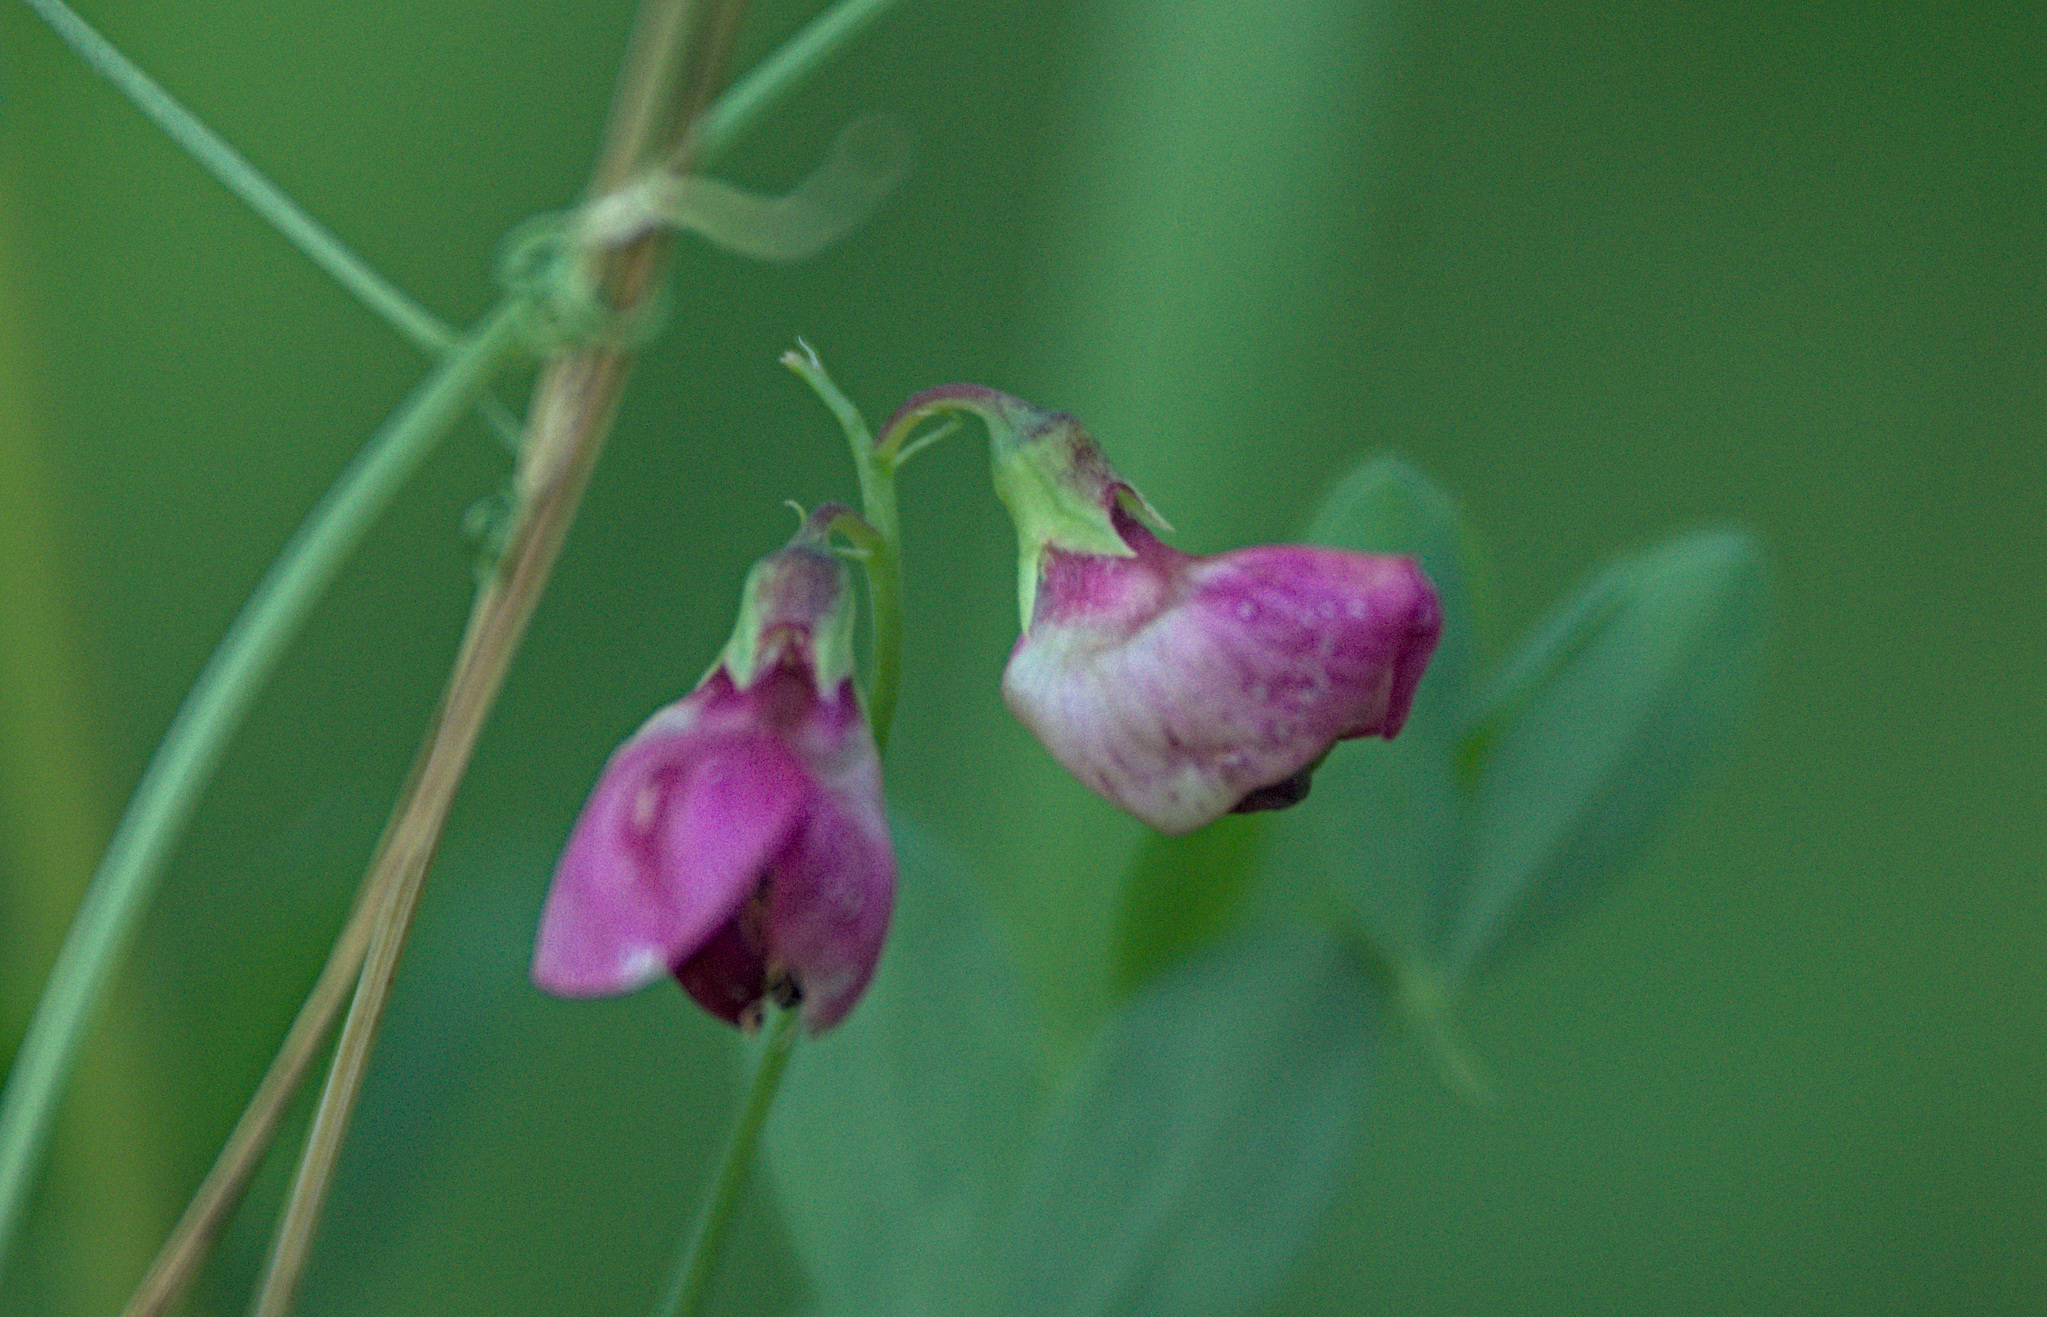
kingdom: Plantae
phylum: Tracheophyta
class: Magnoliopsida
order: Fabales
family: Fabaceae
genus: Lathyrus
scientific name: Lathyrus tuberosus
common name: Tuberous pea
